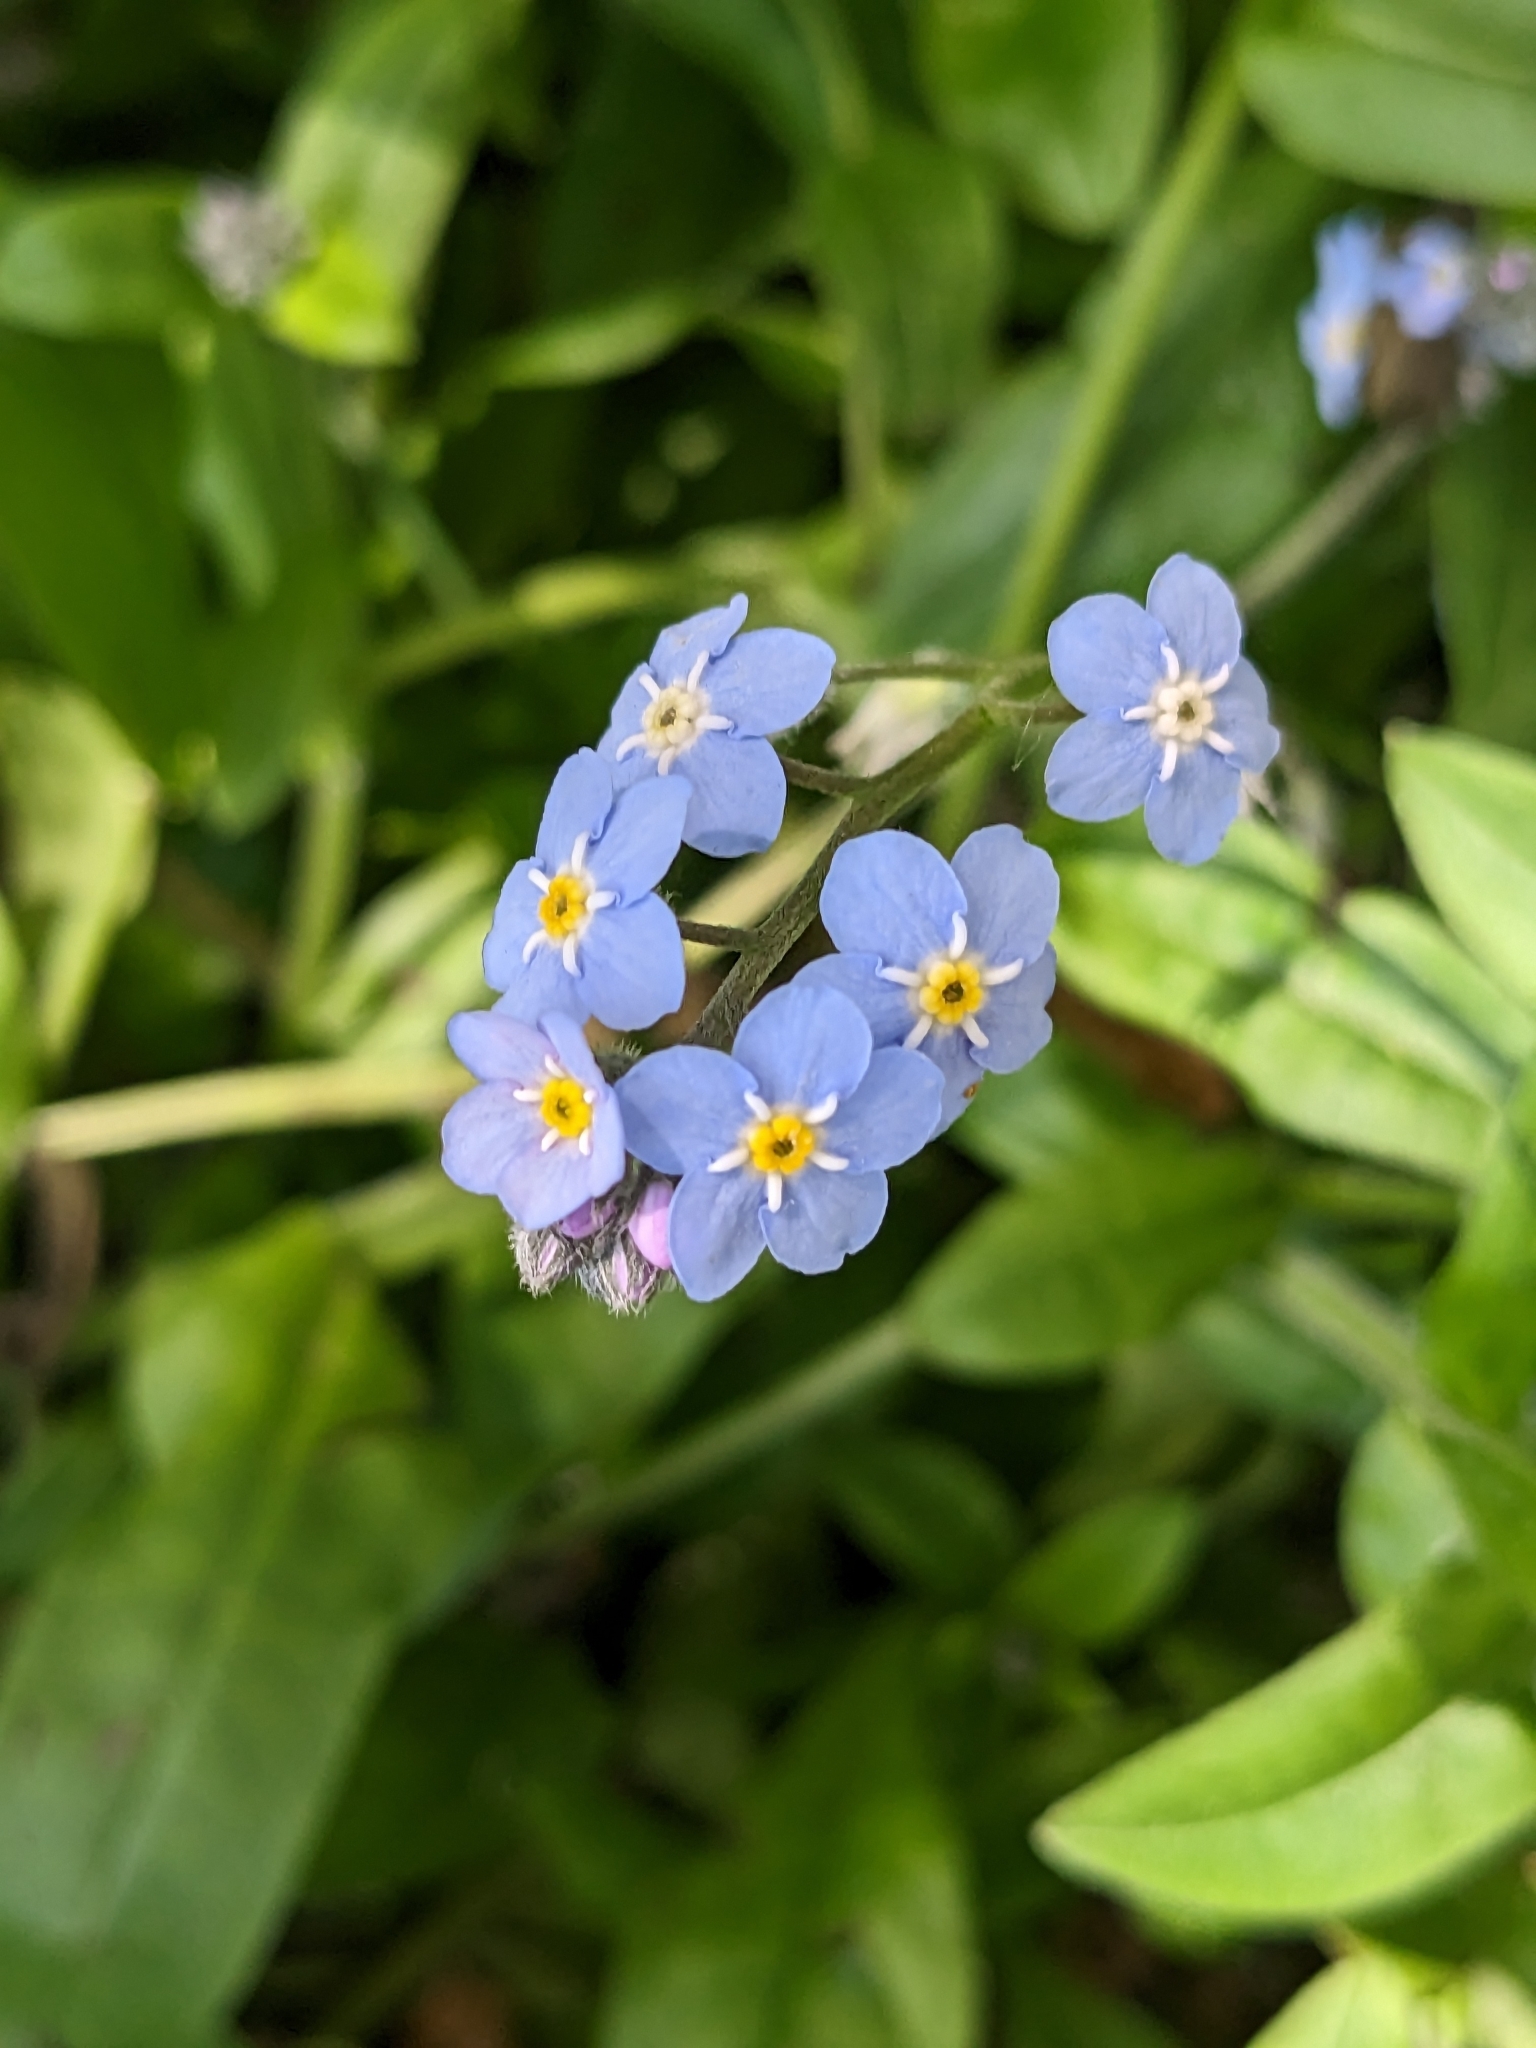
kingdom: Plantae
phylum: Tracheophyta
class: Magnoliopsida
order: Boraginales
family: Boraginaceae
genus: Myosotis
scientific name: Myosotis latifolia
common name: Broadleaf forget-me-not
